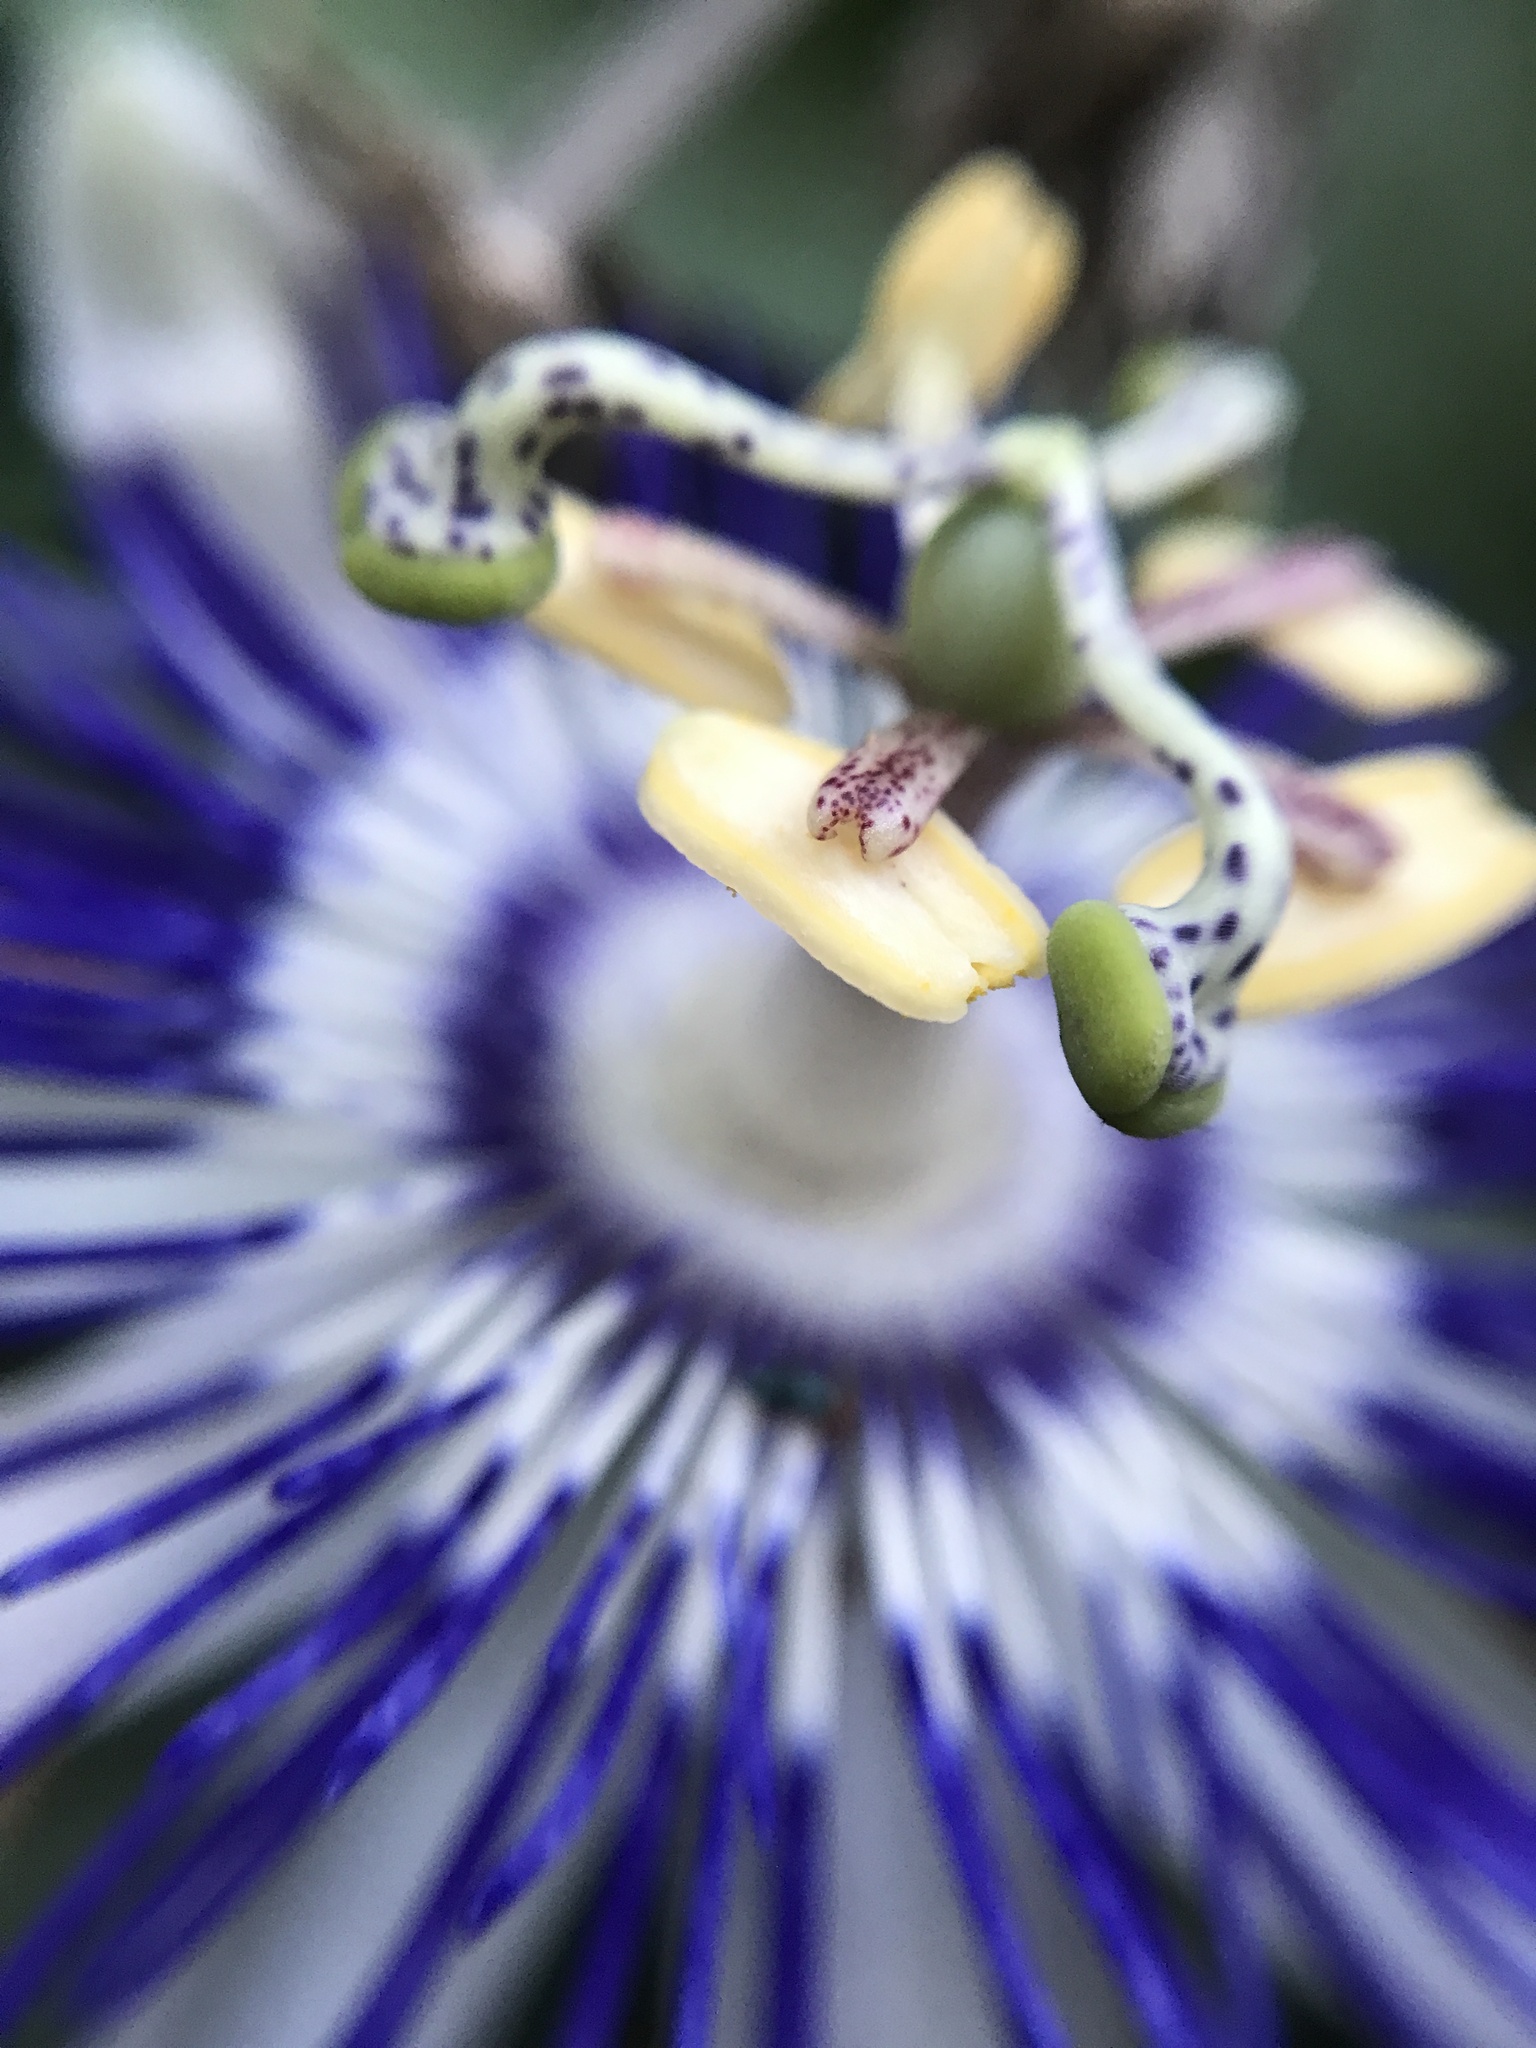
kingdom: Plantae
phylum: Tracheophyta
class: Magnoliopsida
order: Malpighiales
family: Passifloraceae
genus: Passiflora
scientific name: Passiflora mooreana
